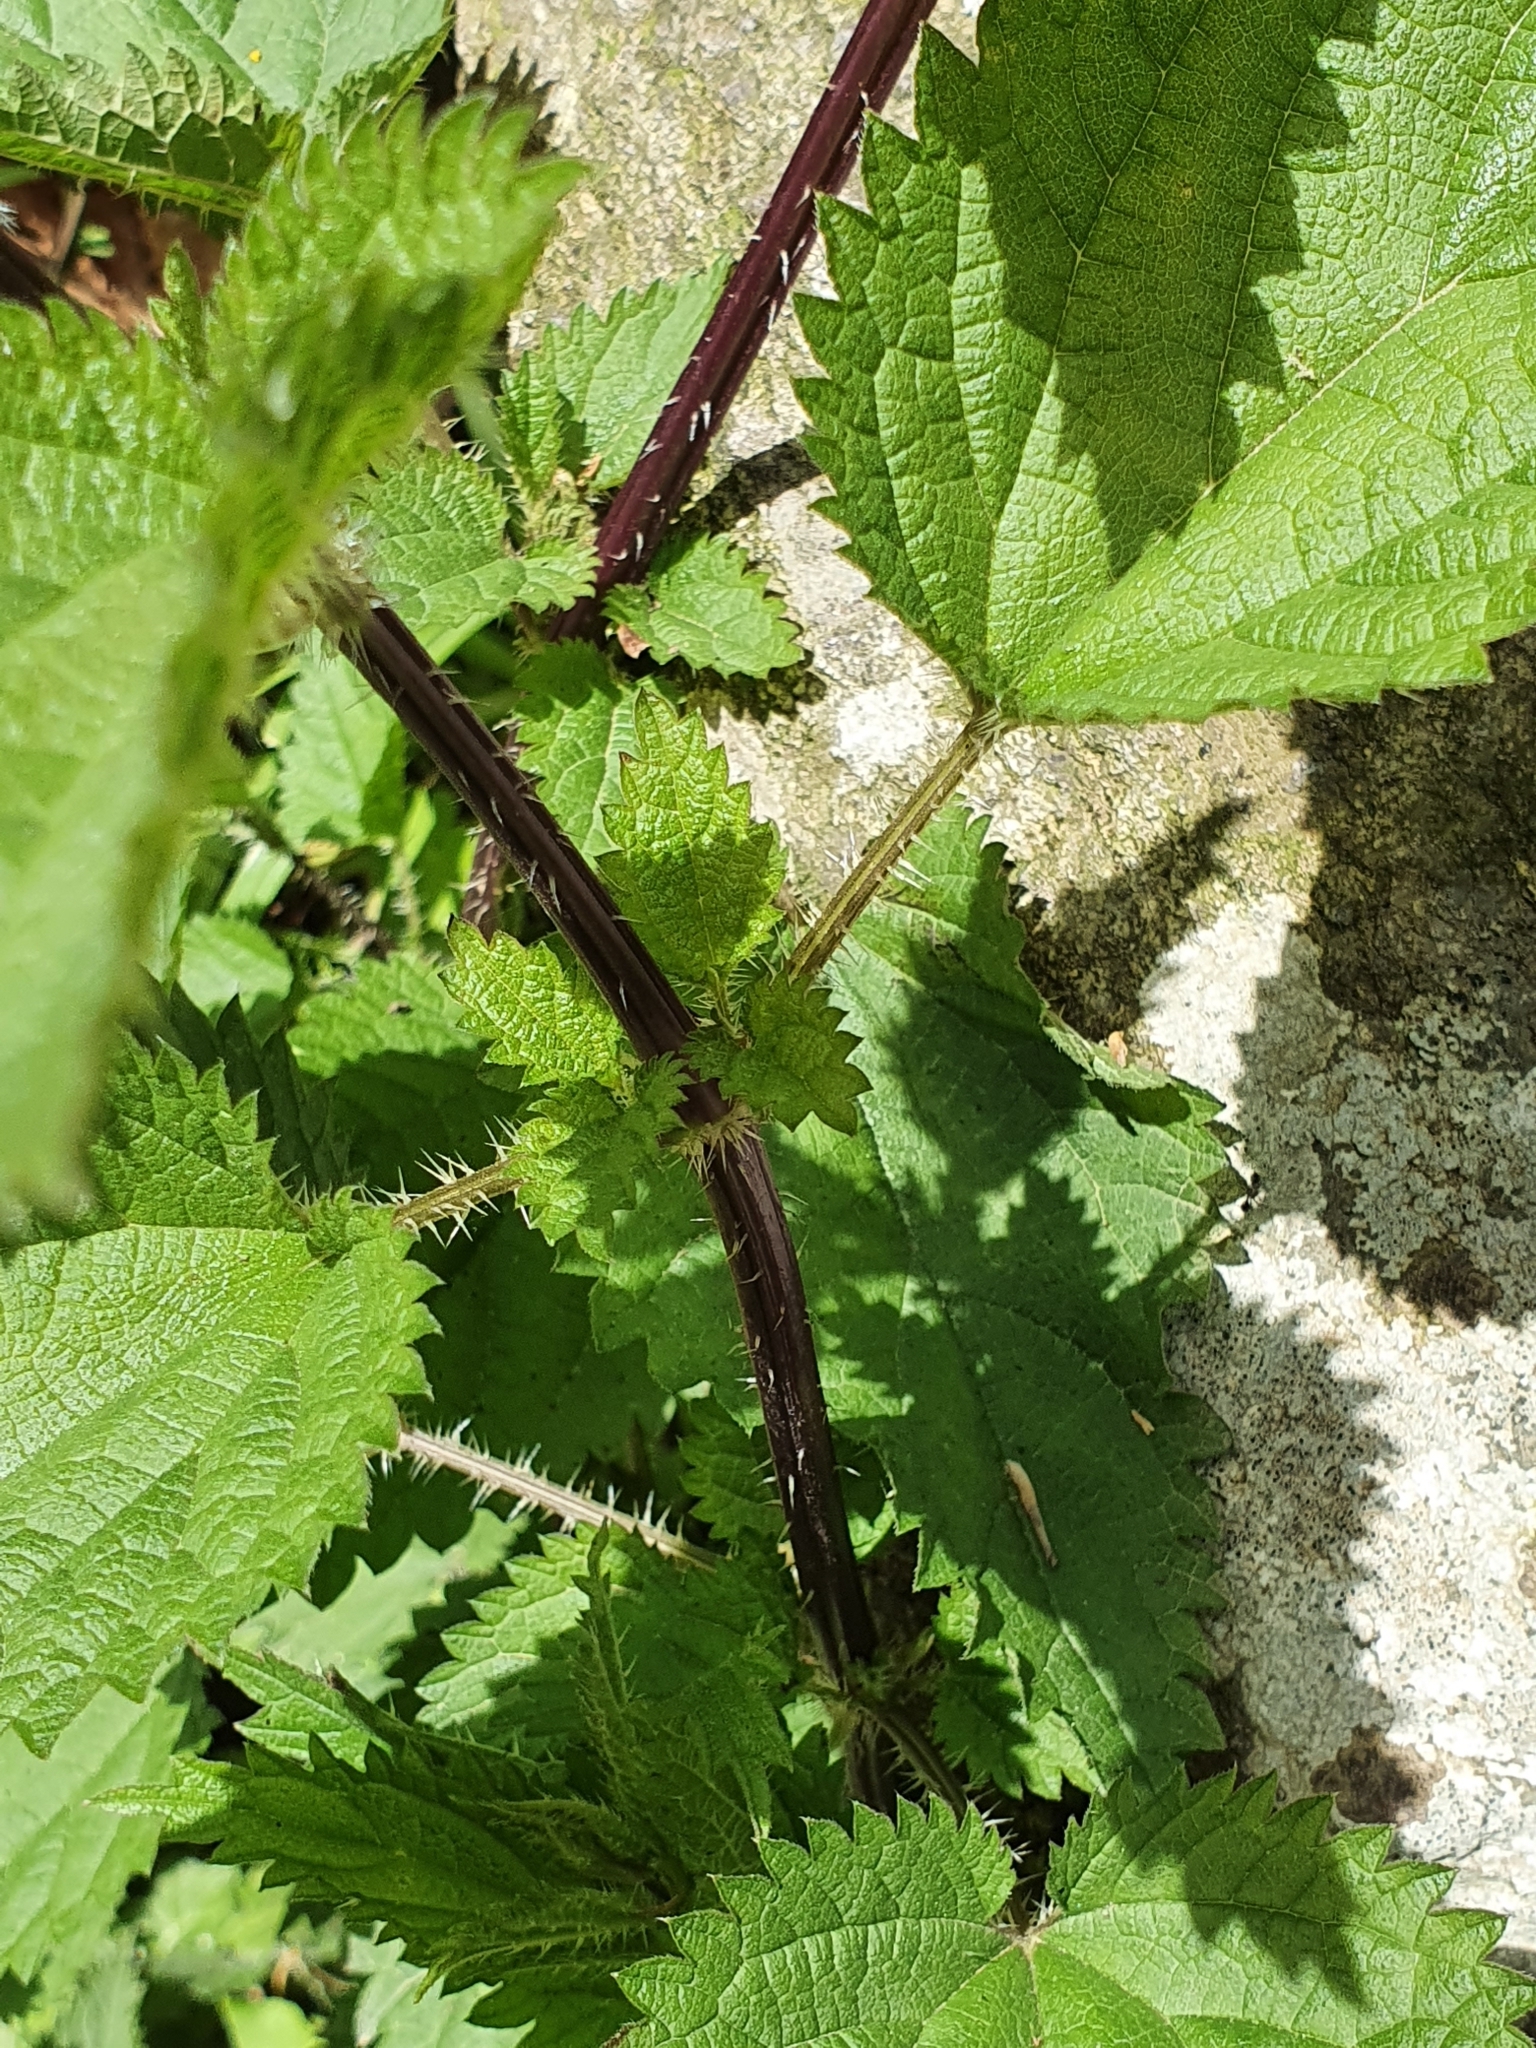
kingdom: Plantae
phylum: Tracheophyta
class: Magnoliopsida
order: Rosales
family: Urticaceae
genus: Urtica
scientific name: Urtica dioica
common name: Common nettle
